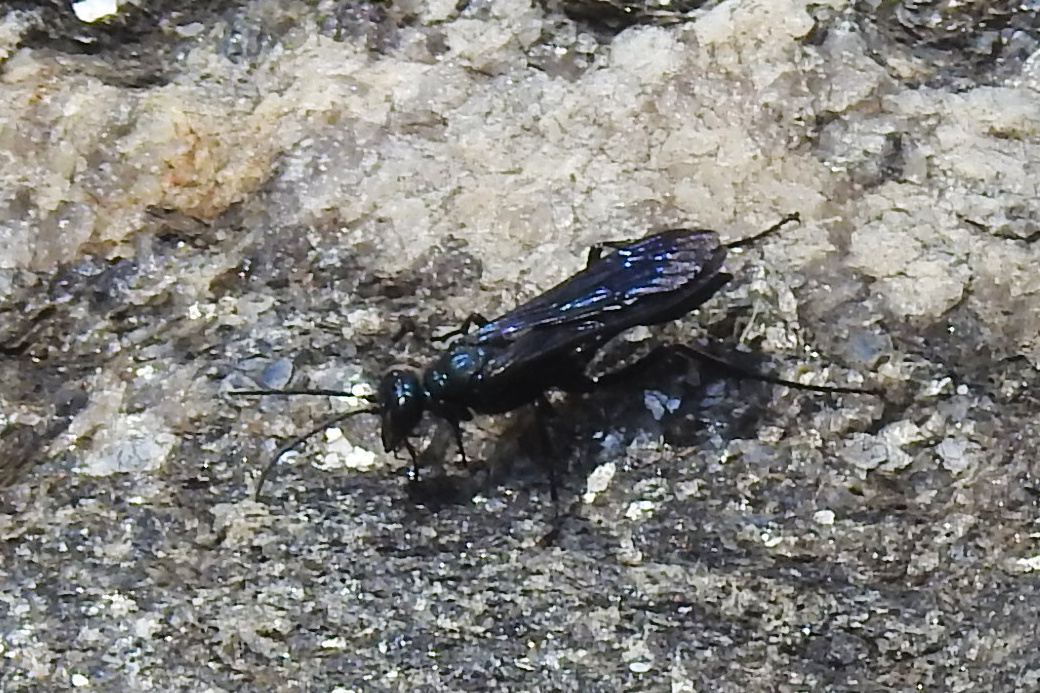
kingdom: Animalia
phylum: Arthropoda
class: Insecta
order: Hymenoptera
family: Sphecidae
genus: Chalybion
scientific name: Chalybion californicum
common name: Mud dauber
